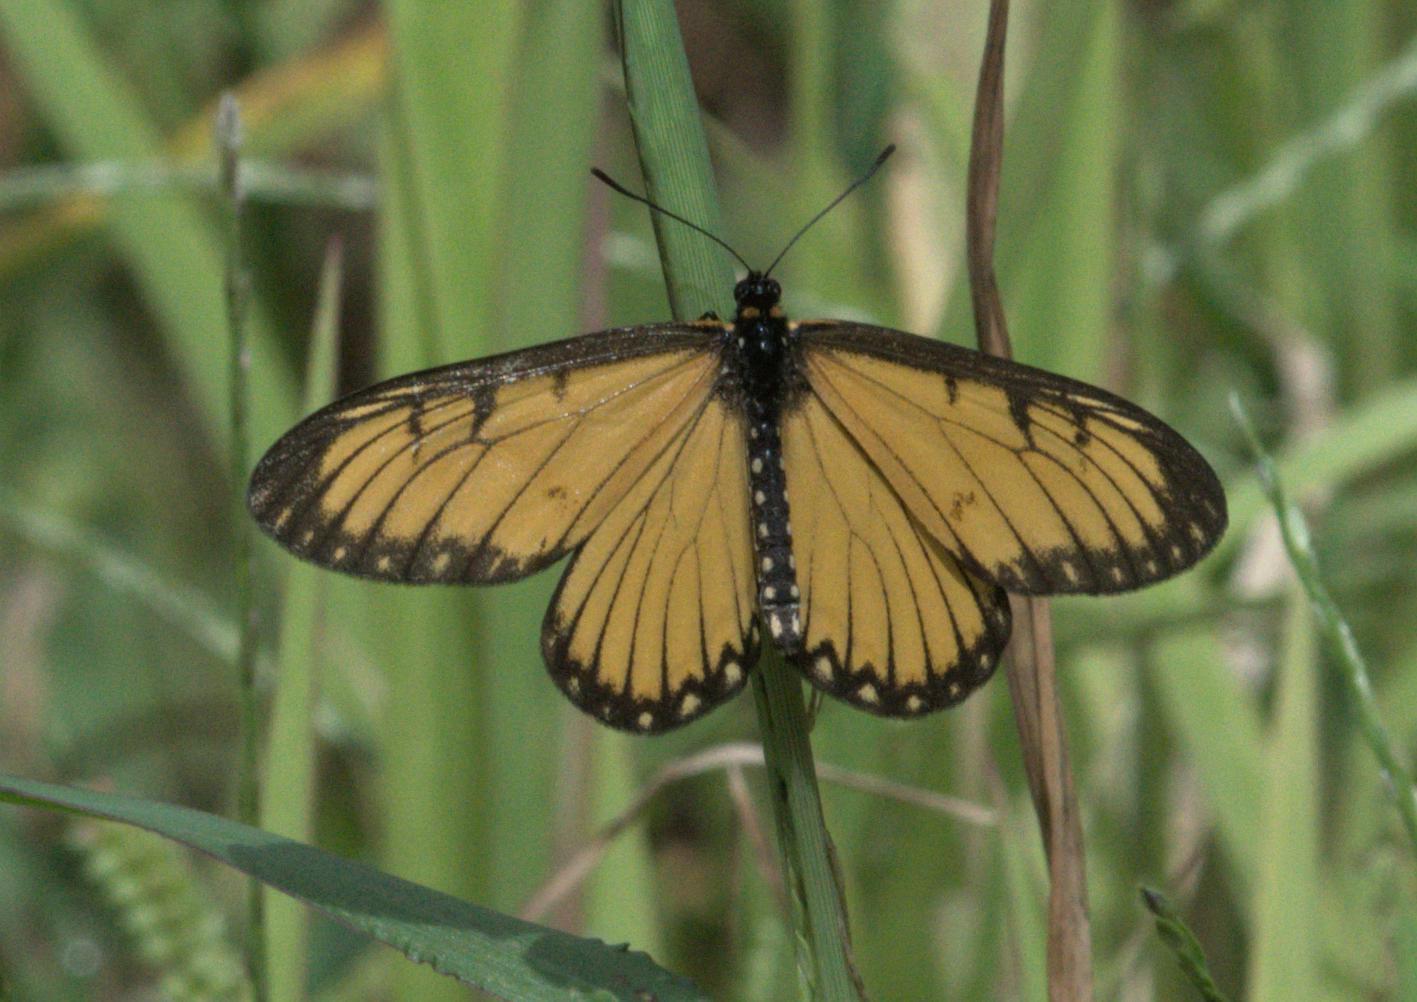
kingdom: Animalia
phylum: Arthropoda
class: Insecta
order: Lepidoptera
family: Nymphalidae
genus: Acraea
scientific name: Acraea Telchinia issoria
